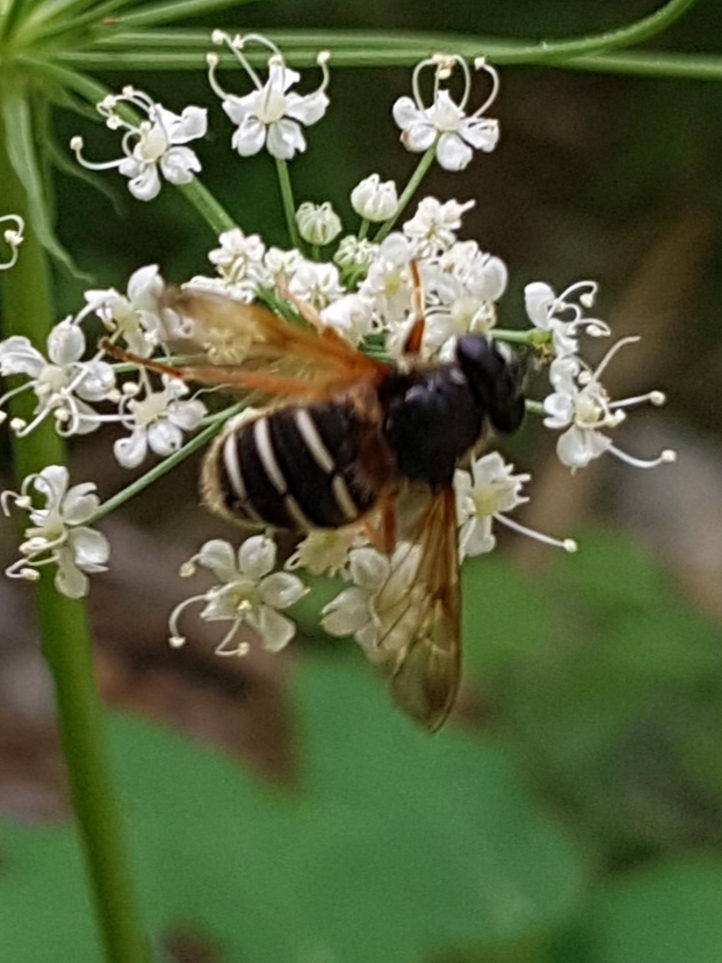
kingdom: Animalia
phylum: Arthropoda
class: Insecta
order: Diptera
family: Syrphidae
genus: Sericomyia
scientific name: Sericomyia lappona
